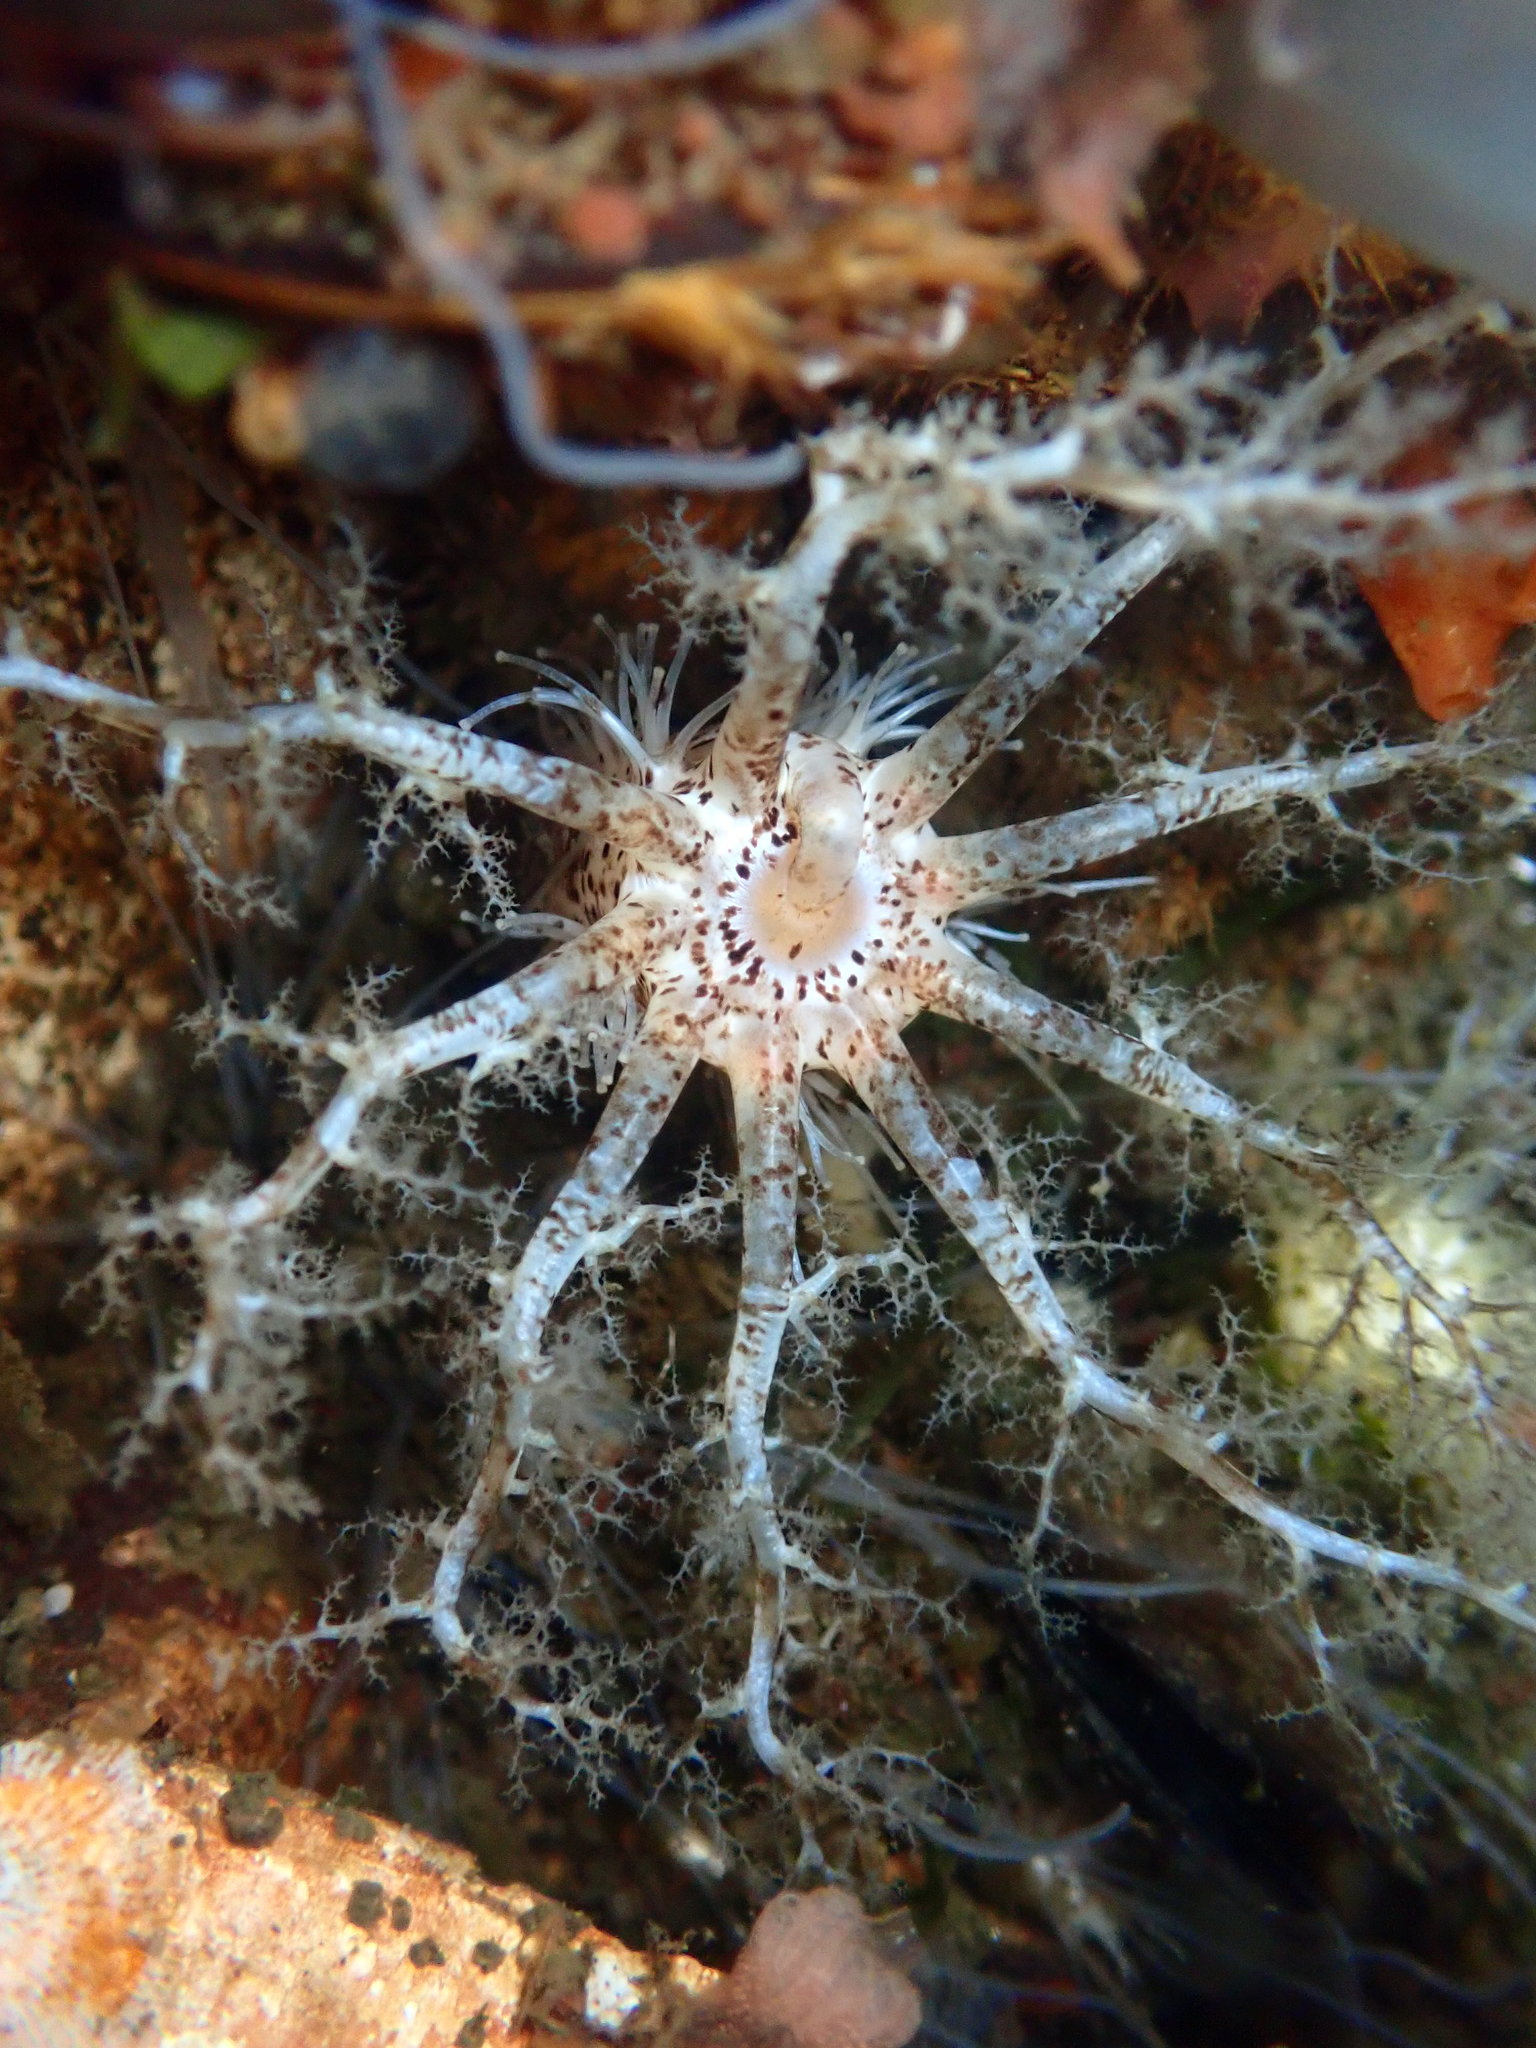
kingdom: Animalia
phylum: Echinodermata
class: Holothuroidea
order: Dendrochirotida
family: Cucumariidae
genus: Cucumaria
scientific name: Cucumaria piperata
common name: Peppered sea cucumber
